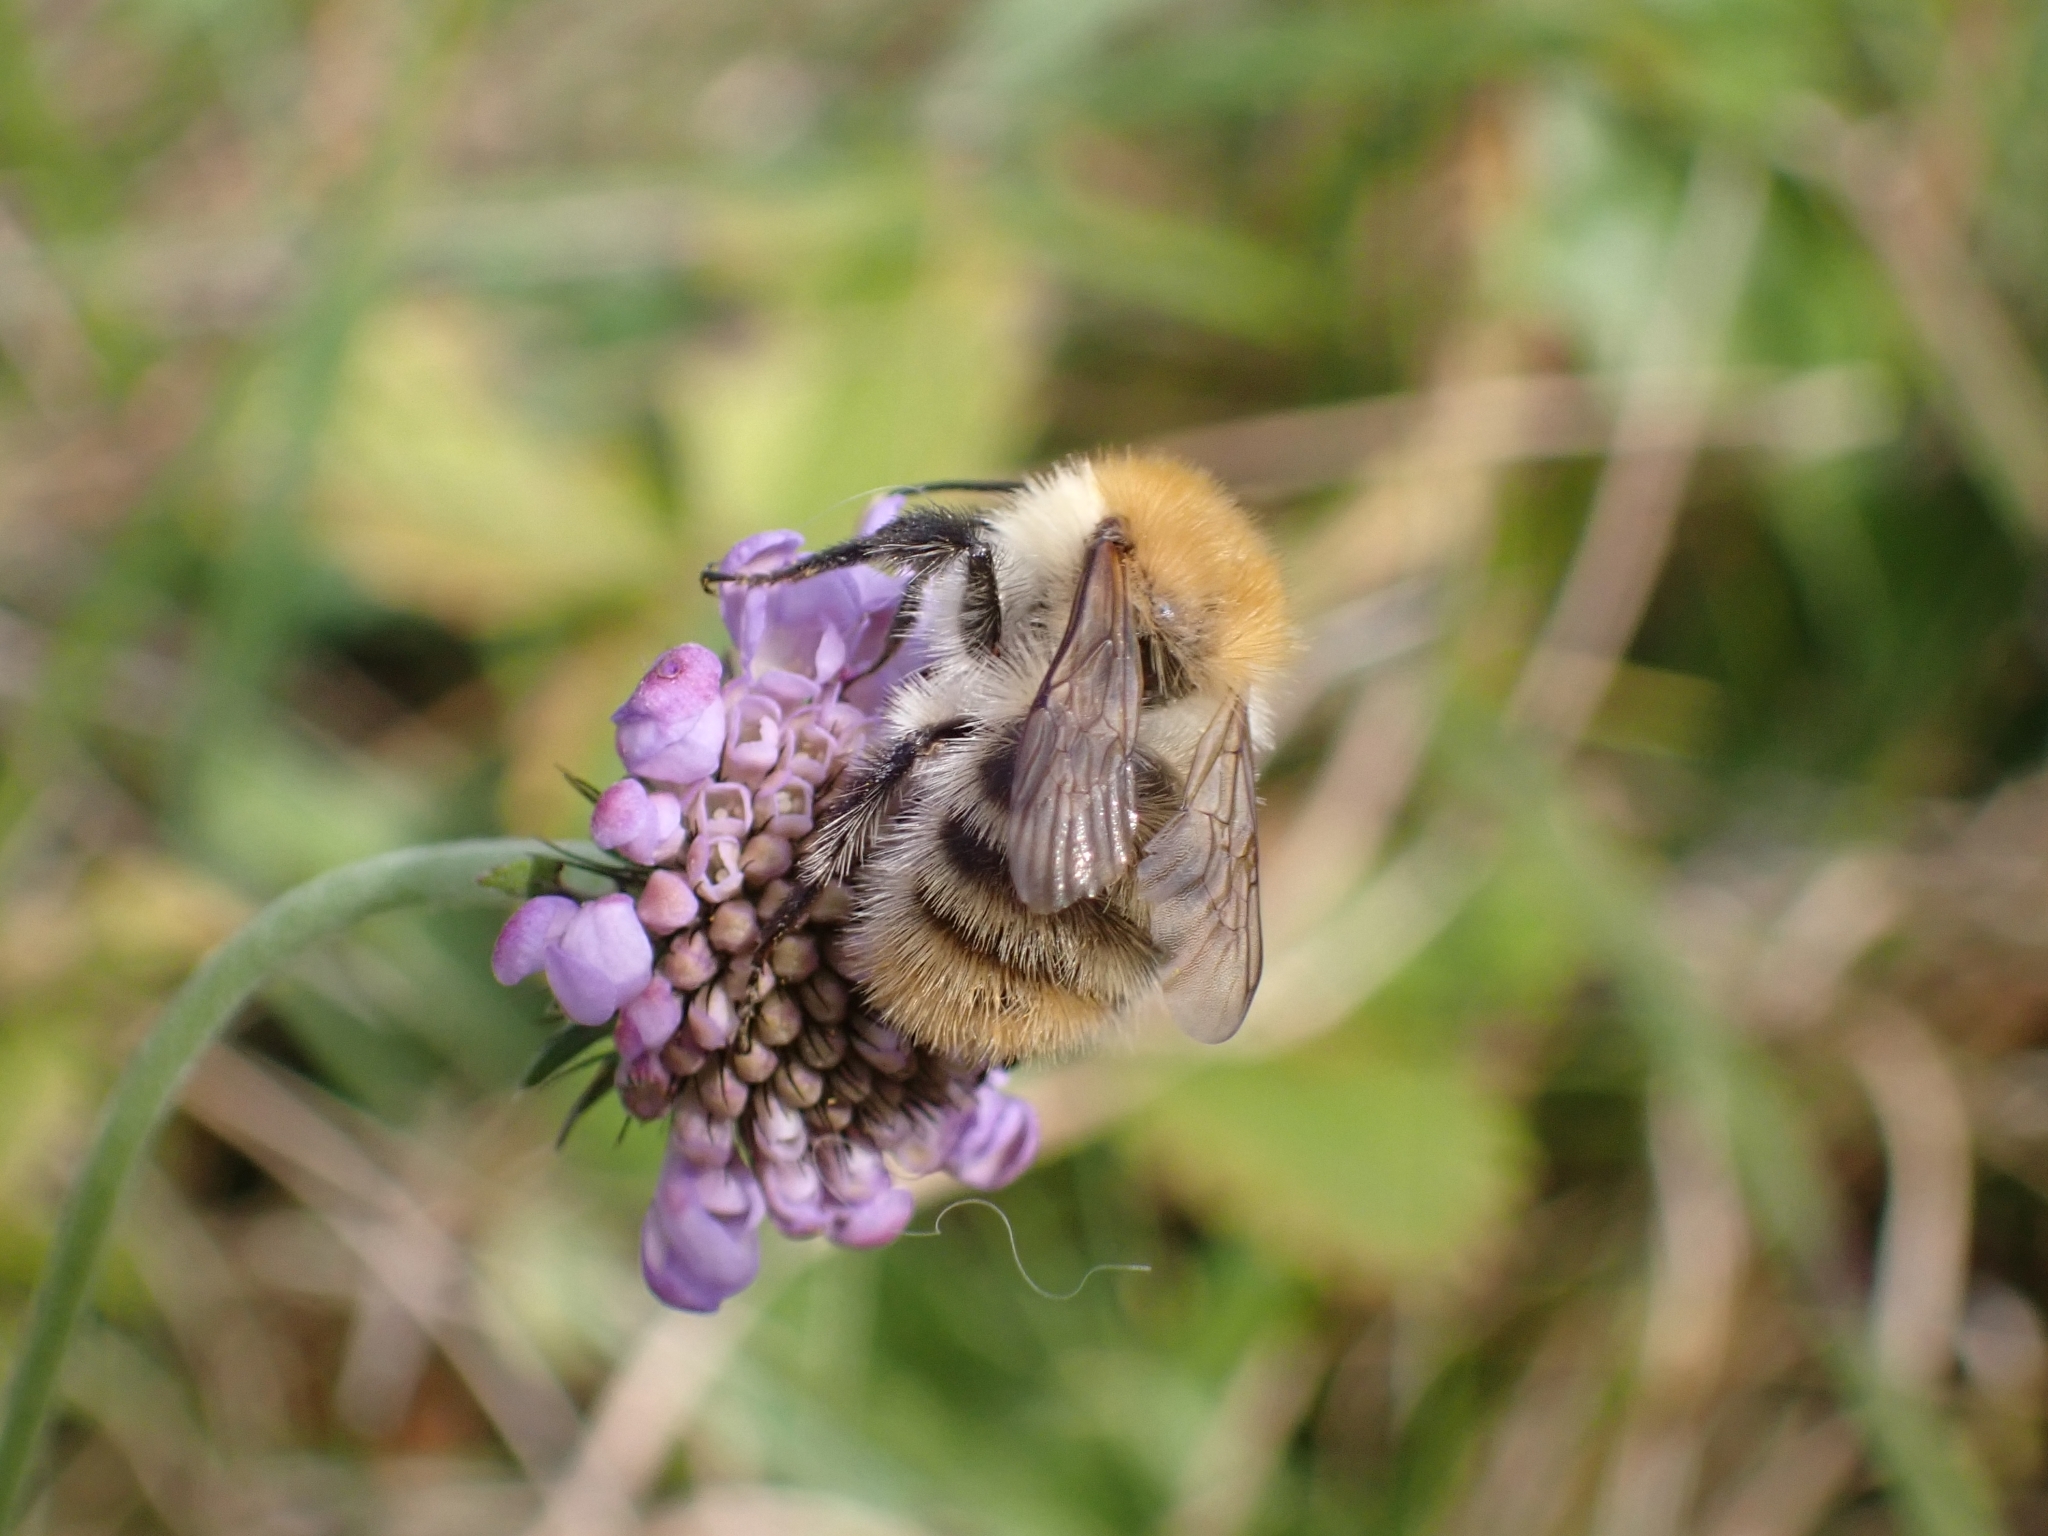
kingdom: Animalia
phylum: Arthropoda
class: Insecta
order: Hymenoptera
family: Apidae
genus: Bombus
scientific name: Bombus pascuorum
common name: Common carder bee
